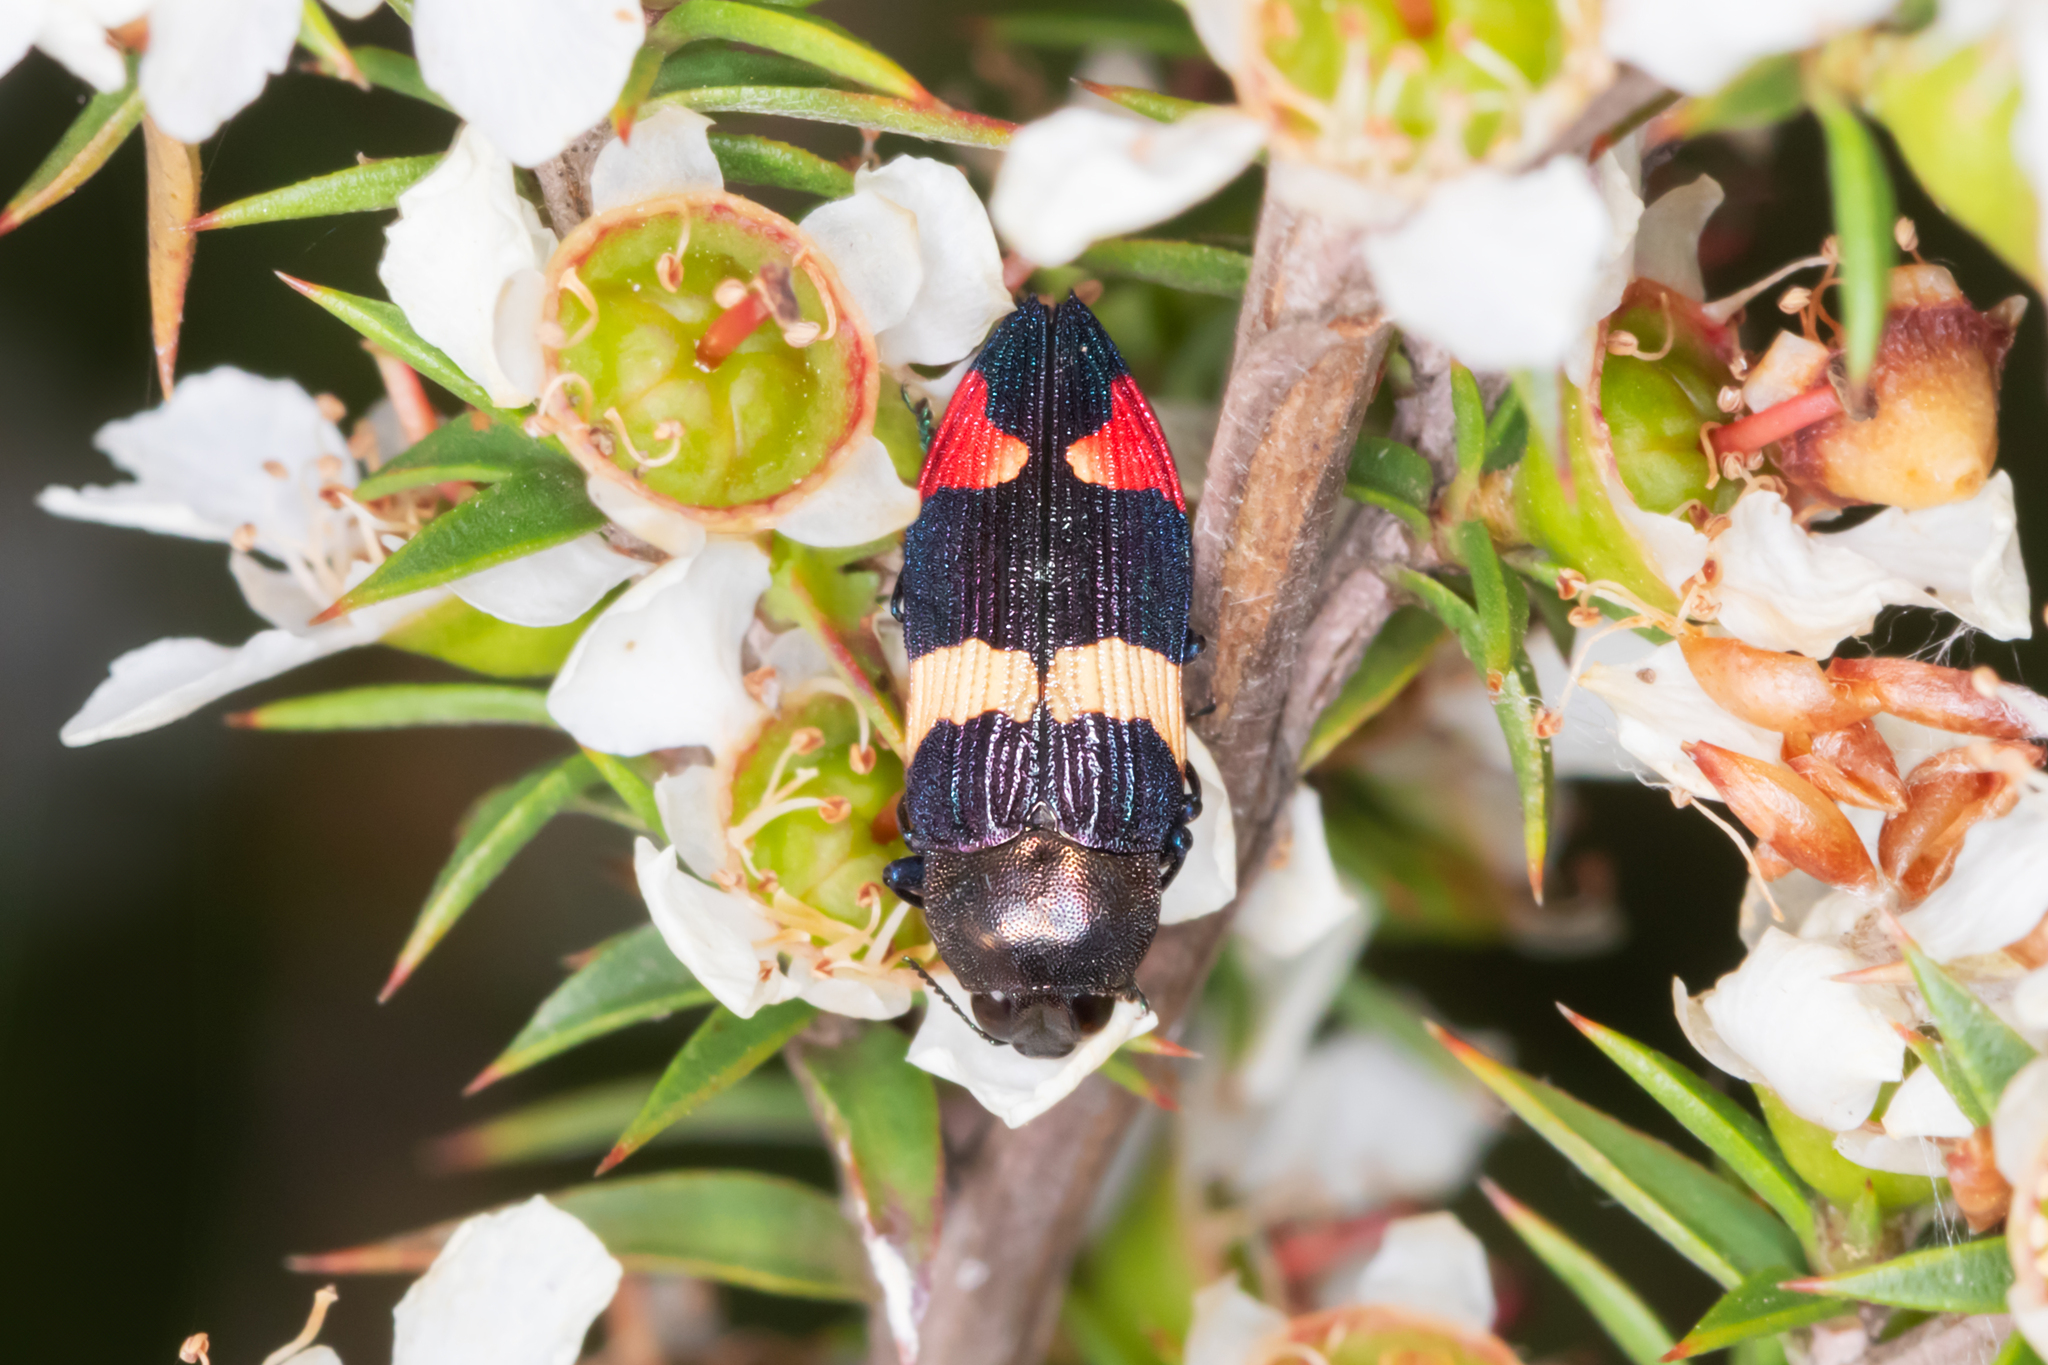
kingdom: Animalia
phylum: Arthropoda
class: Insecta
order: Coleoptera
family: Buprestidae
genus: Castiarina
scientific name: Castiarina bella
